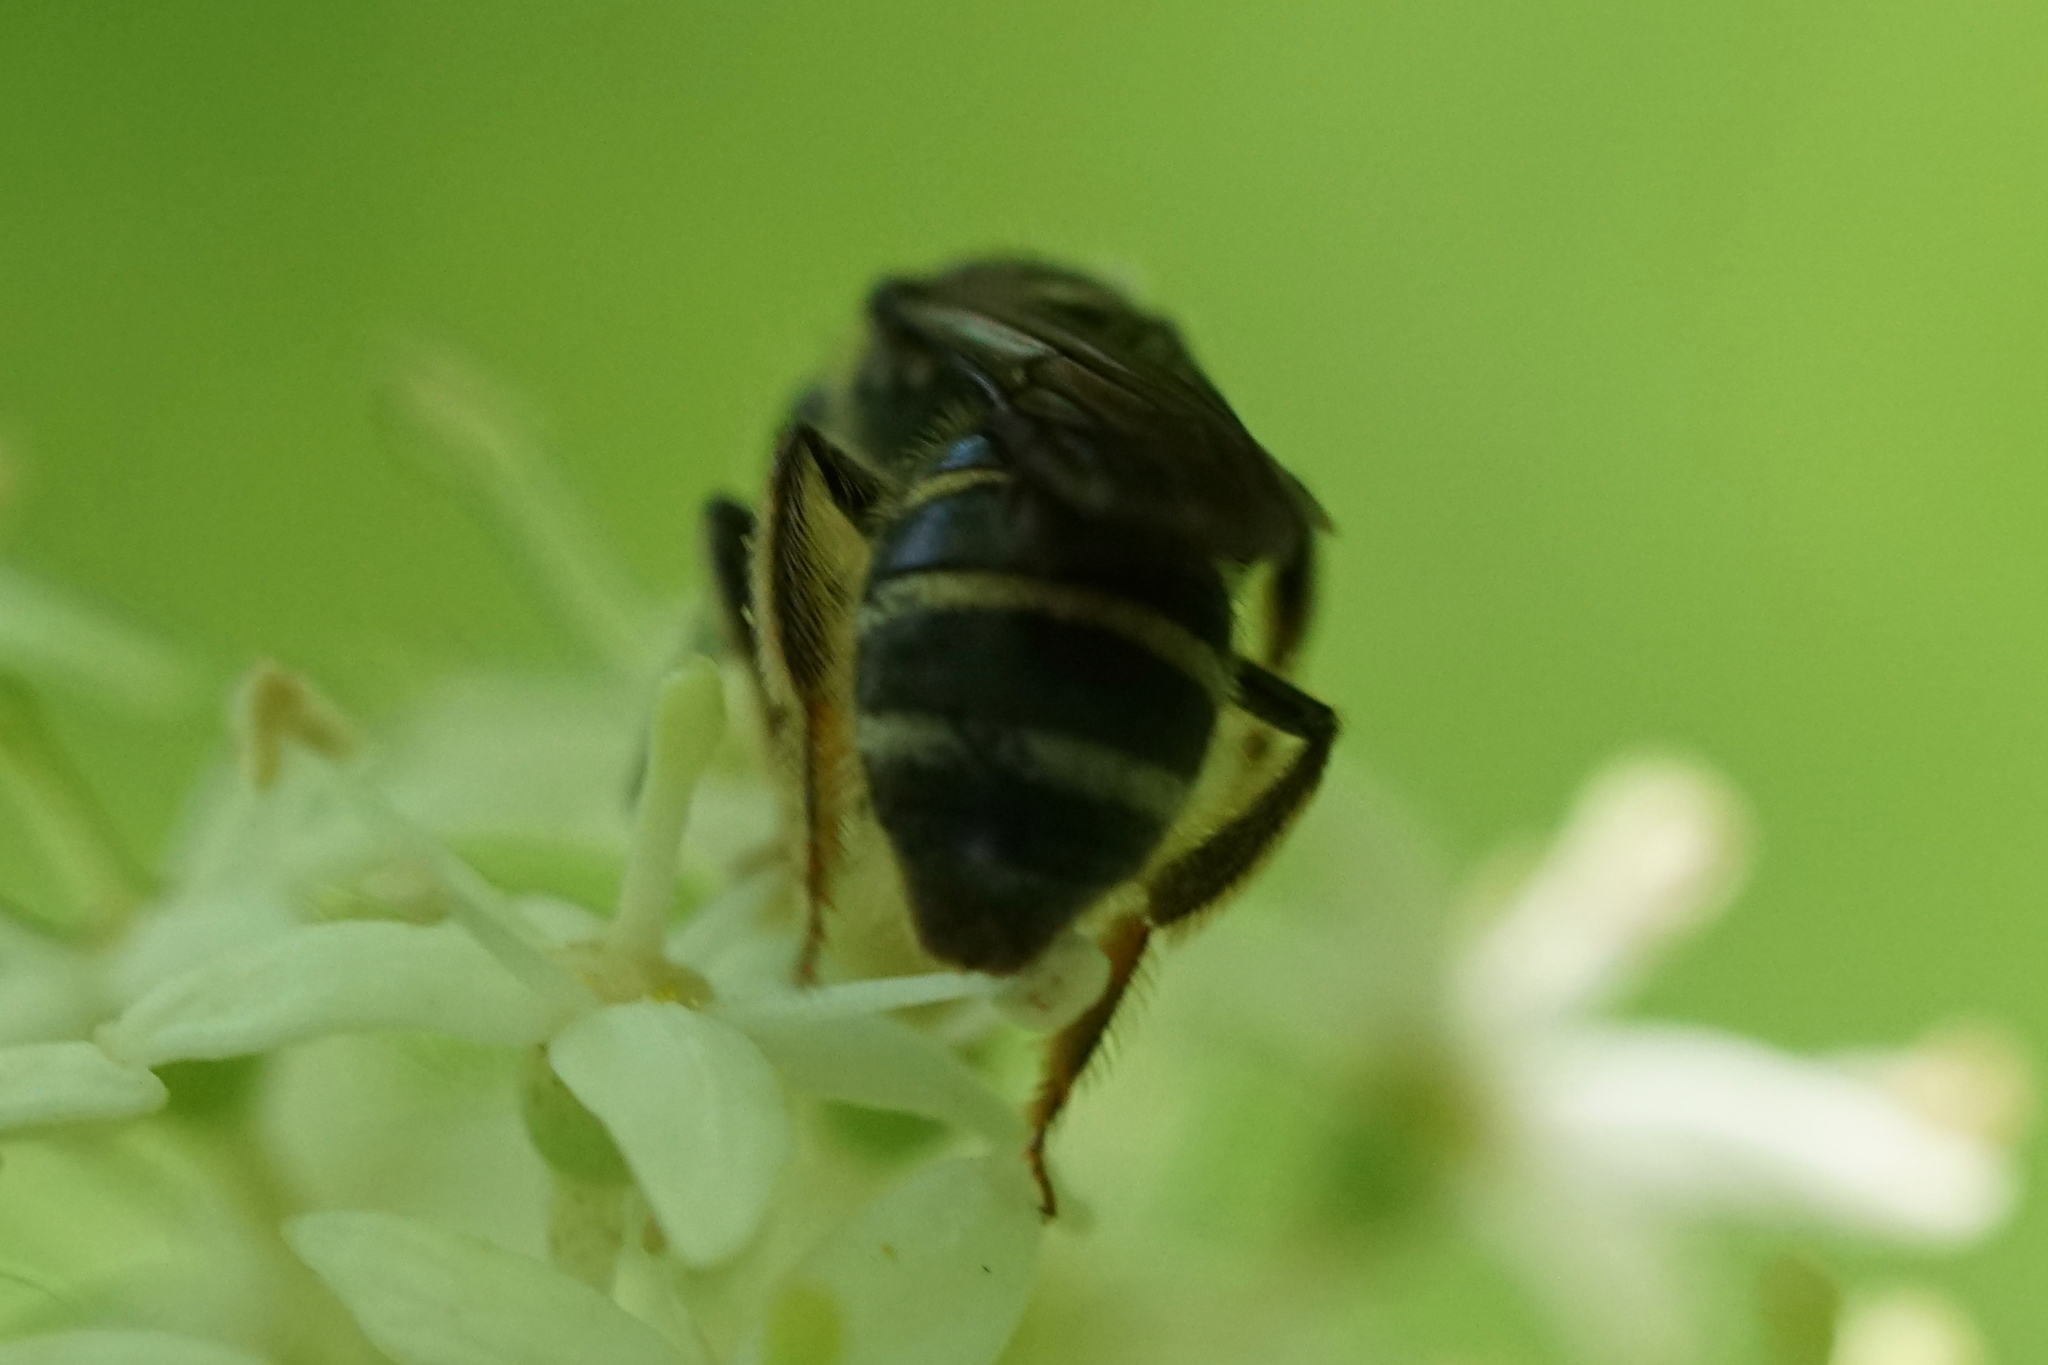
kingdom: Animalia
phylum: Arthropoda
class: Insecta
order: Hymenoptera
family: Halictidae
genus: Lasioglossum
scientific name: Lasioglossum
